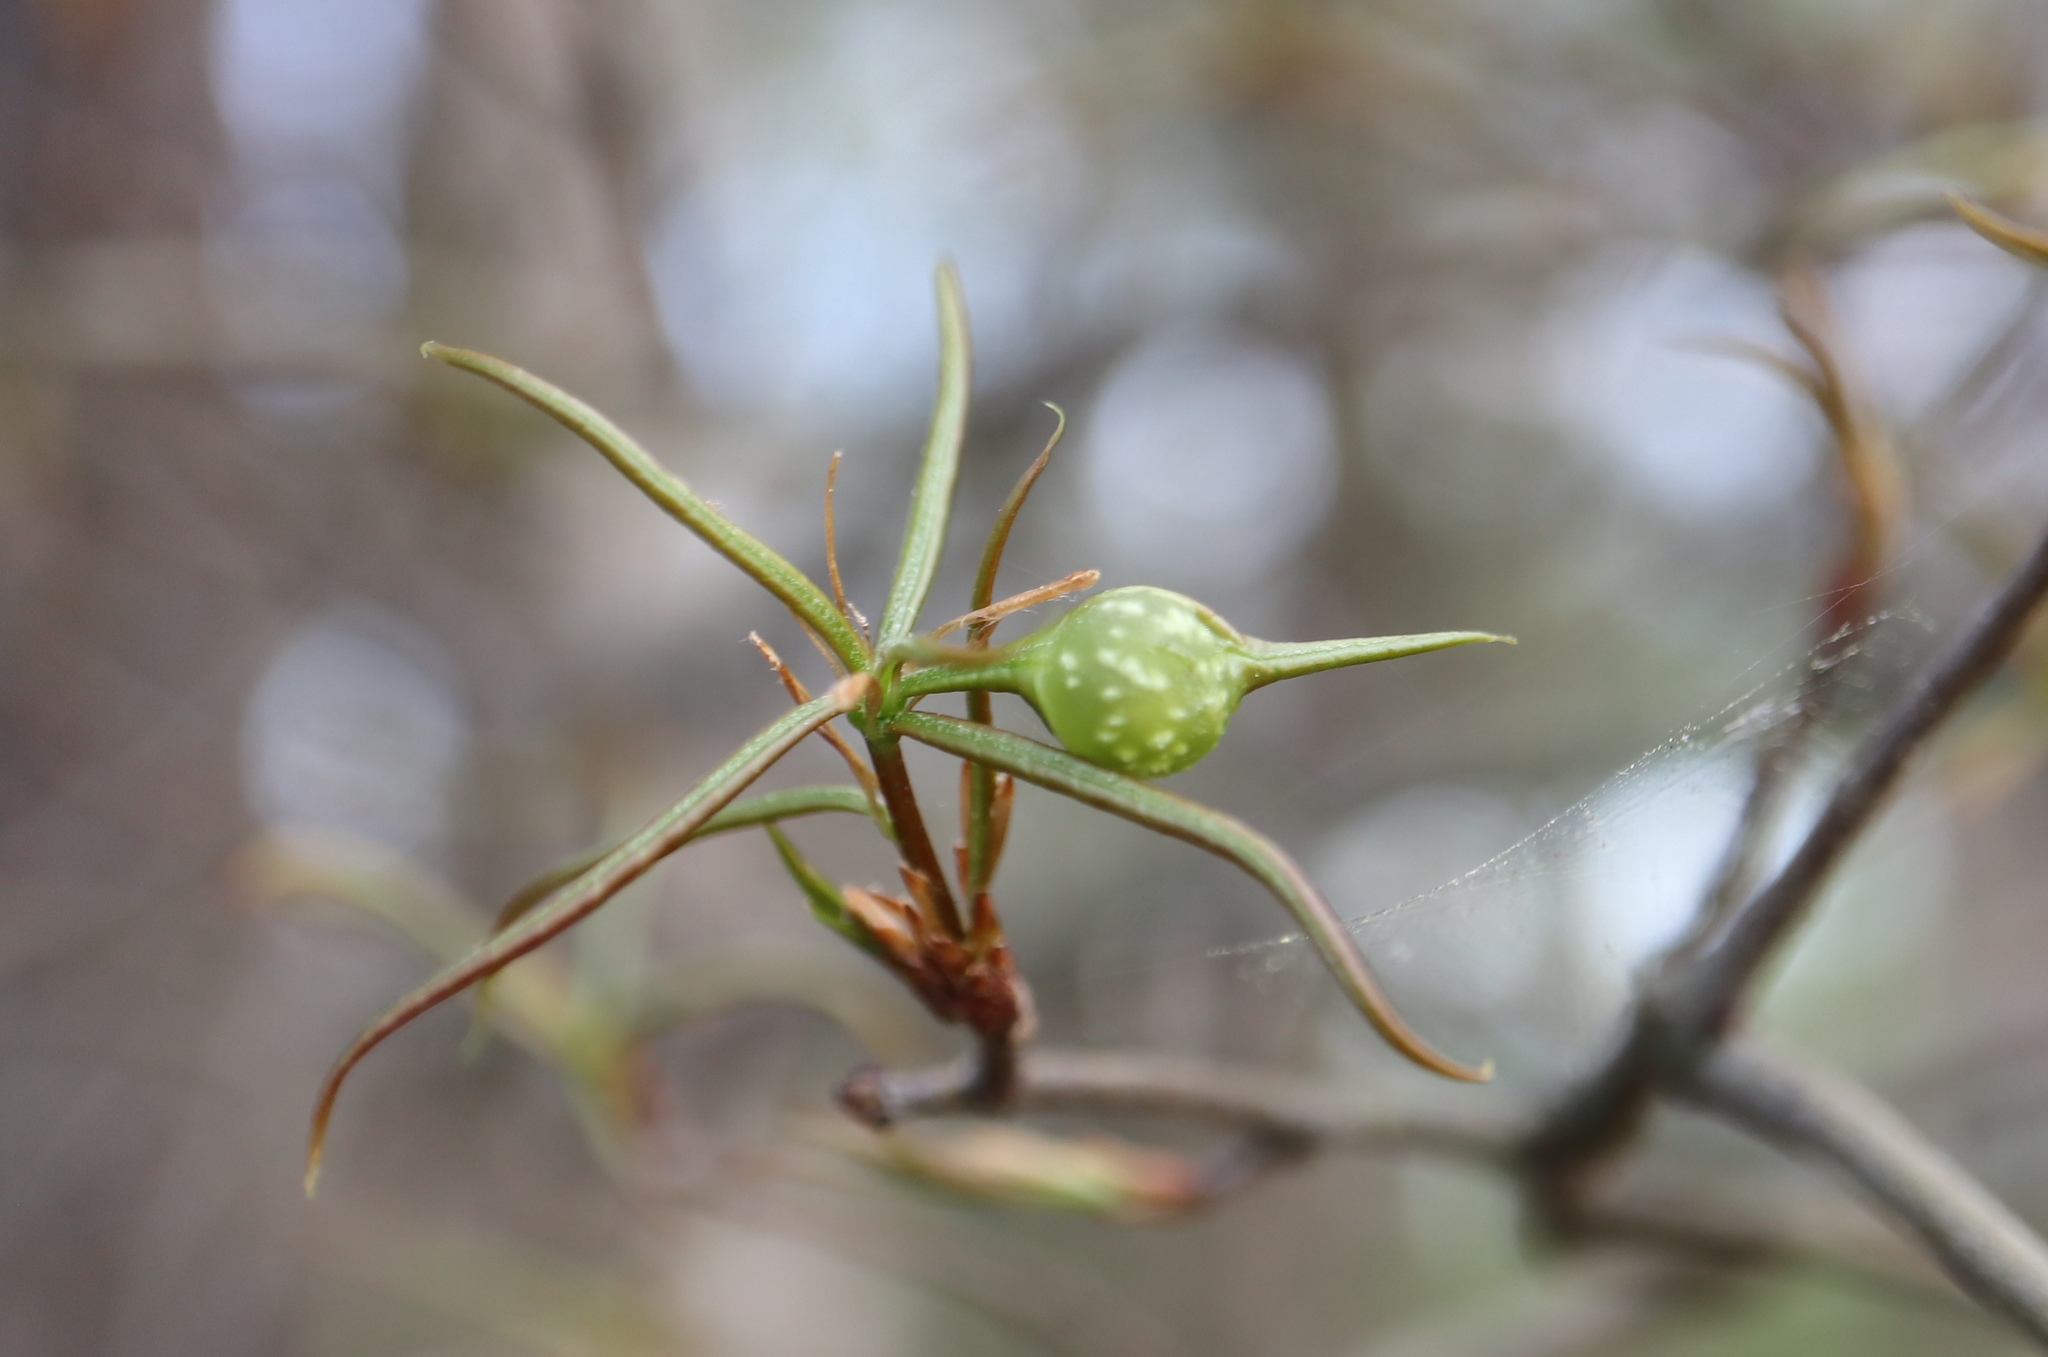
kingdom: Animalia
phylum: Arthropoda
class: Insecta
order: Hymenoptera
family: Cynipidae
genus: Dryocosmus
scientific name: Dryocosmus
